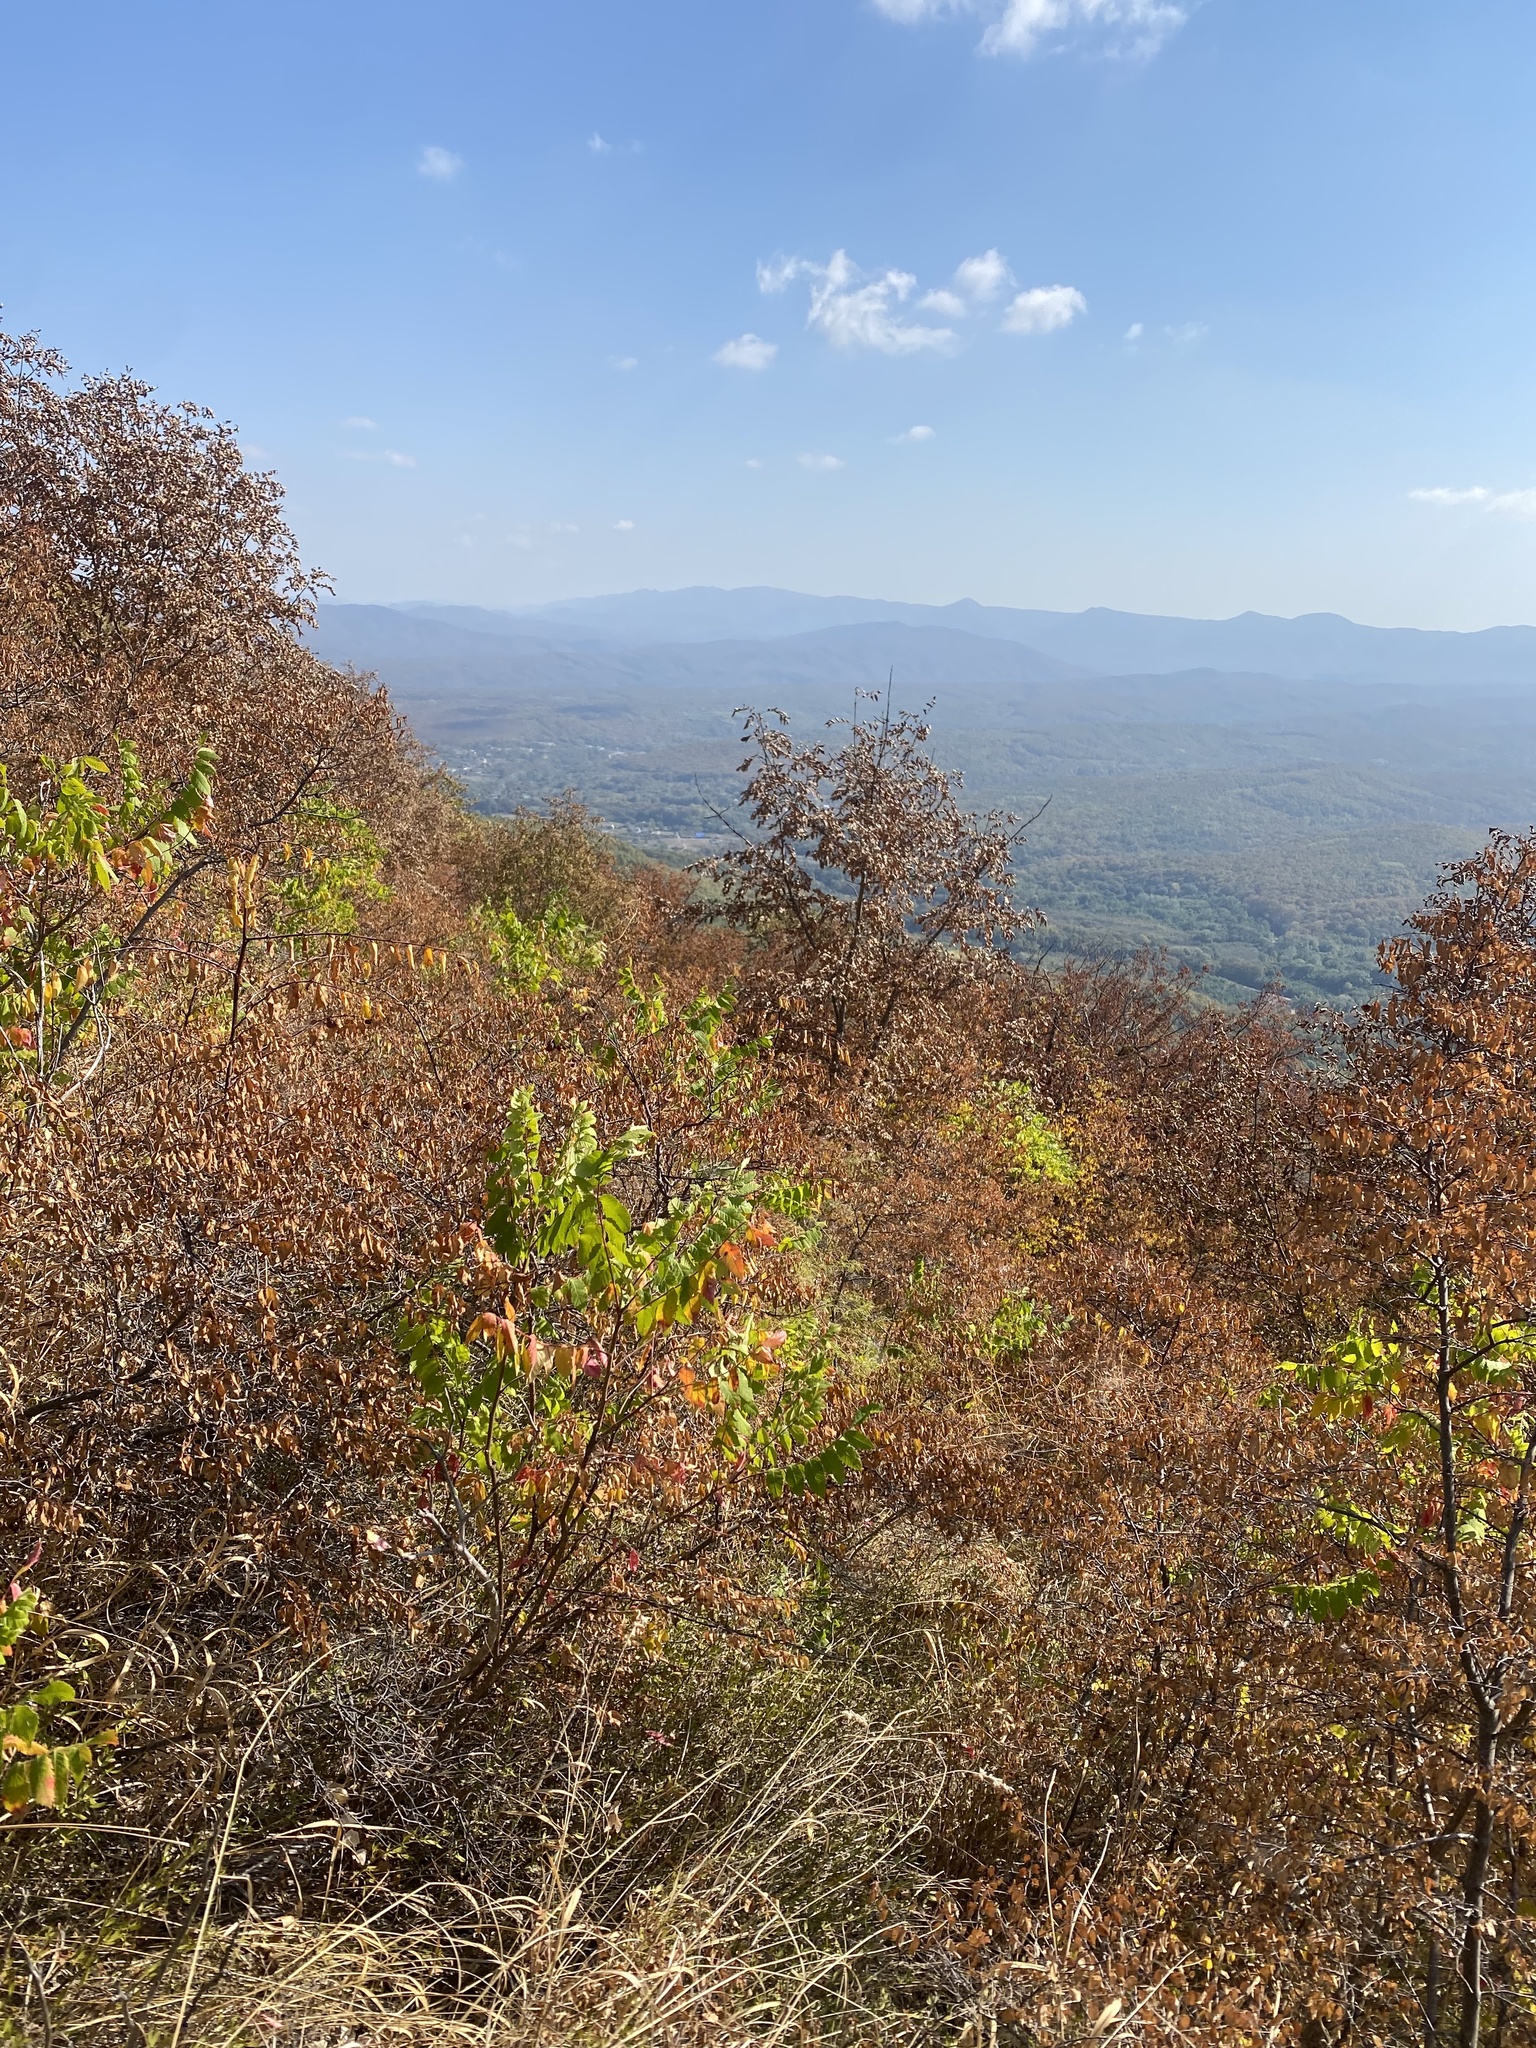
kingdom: Plantae
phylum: Tracheophyta
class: Magnoliopsida
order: Sapindales
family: Anacardiaceae
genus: Rhus
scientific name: Rhus coriaria
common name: Tanner's sumach
